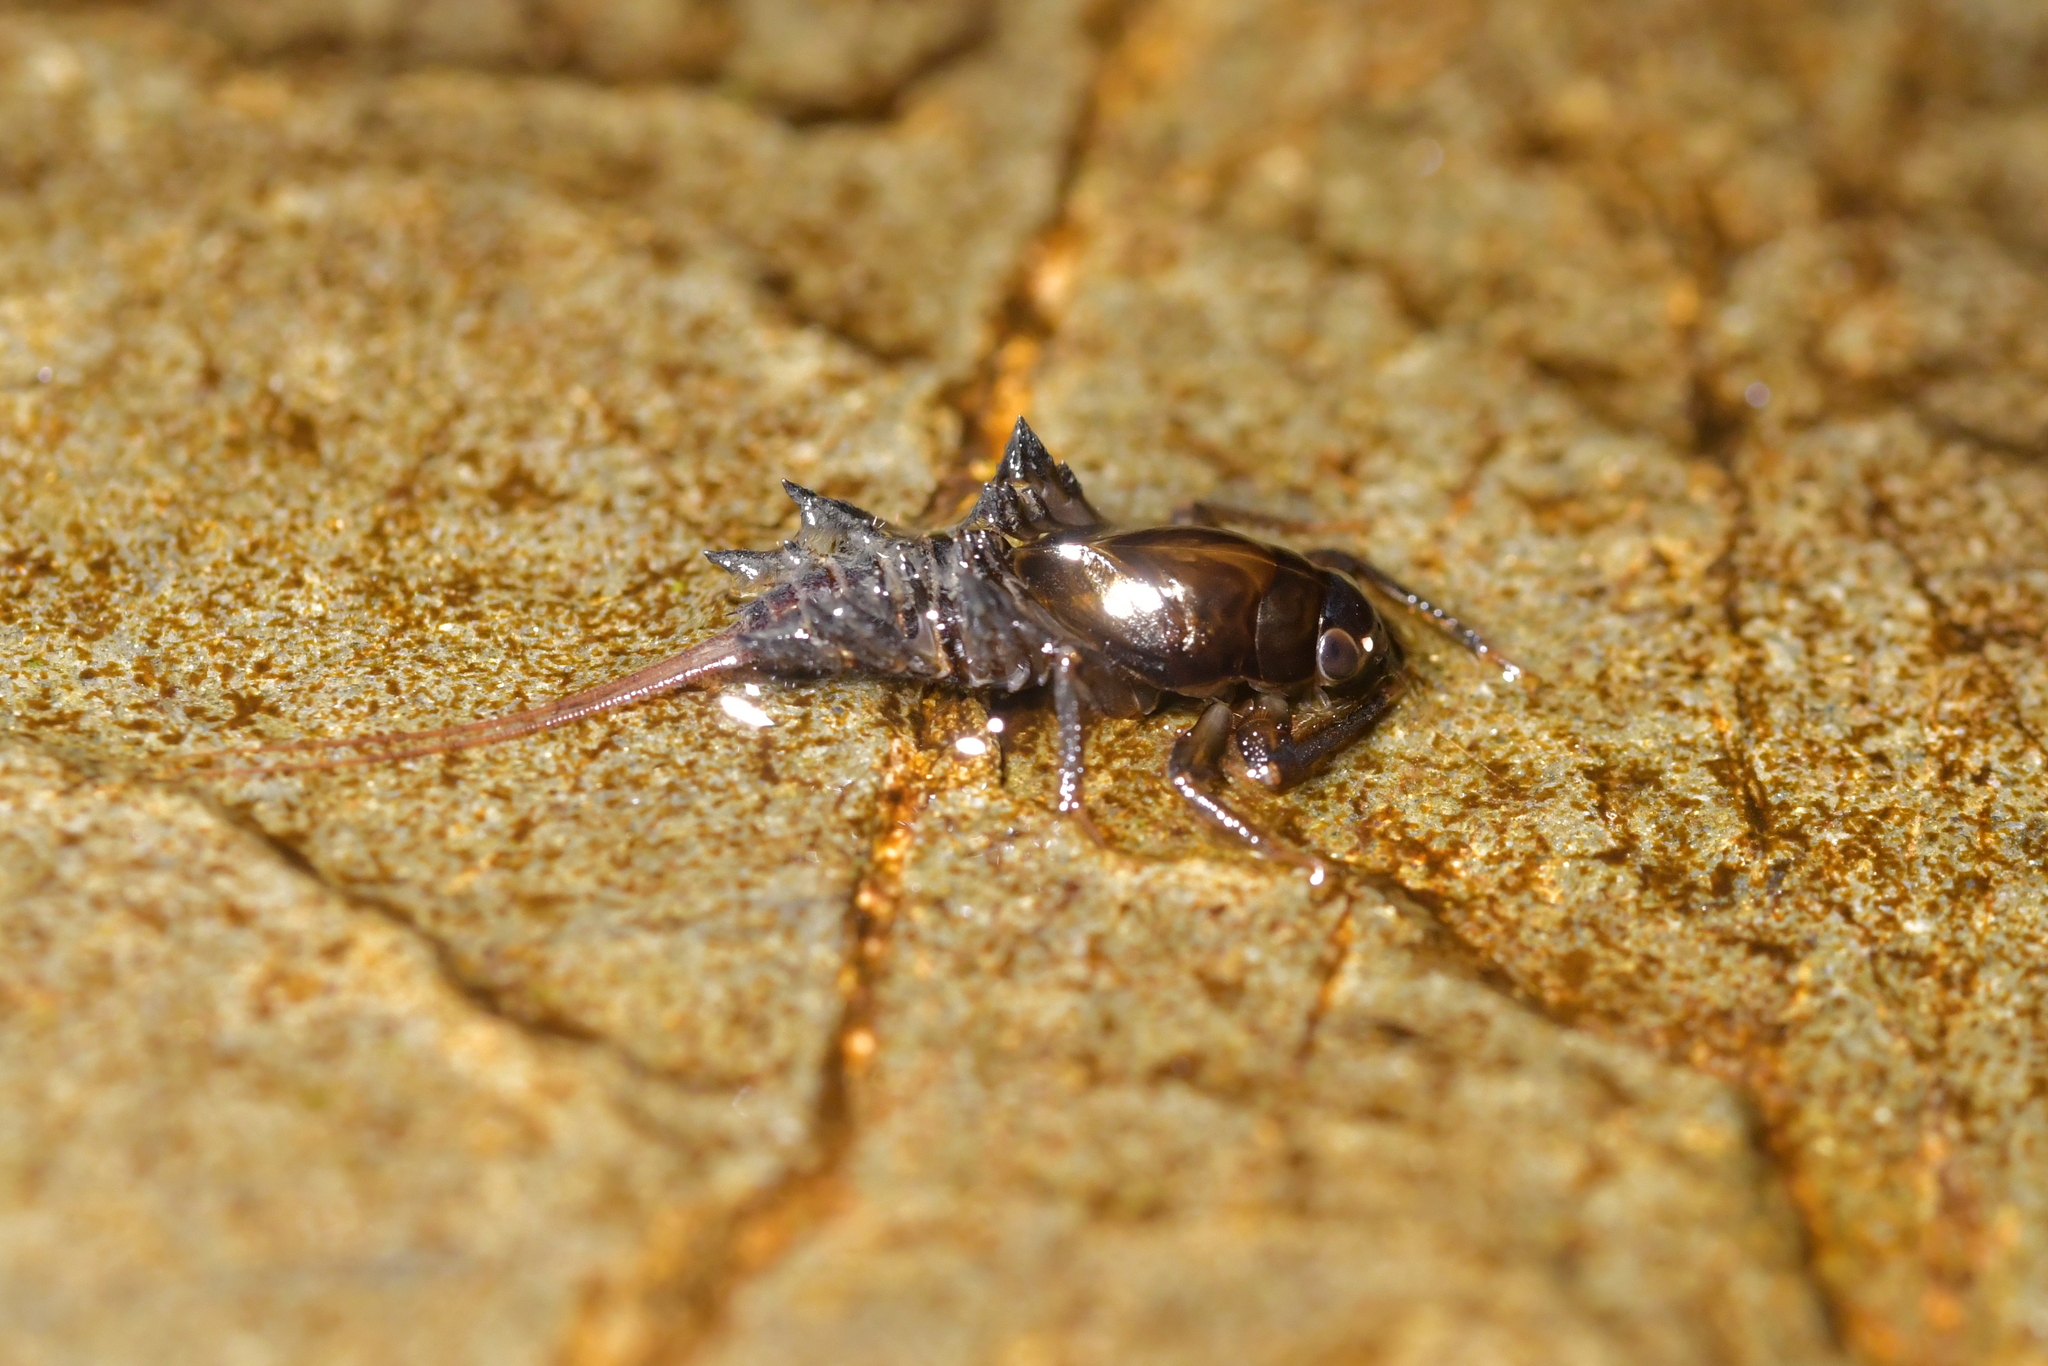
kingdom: Animalia
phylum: Arthropoda
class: Insecta
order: Ephemeroptera
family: Coloburiscidae
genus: Coloburiscus
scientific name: Coloburiscus humeralis
